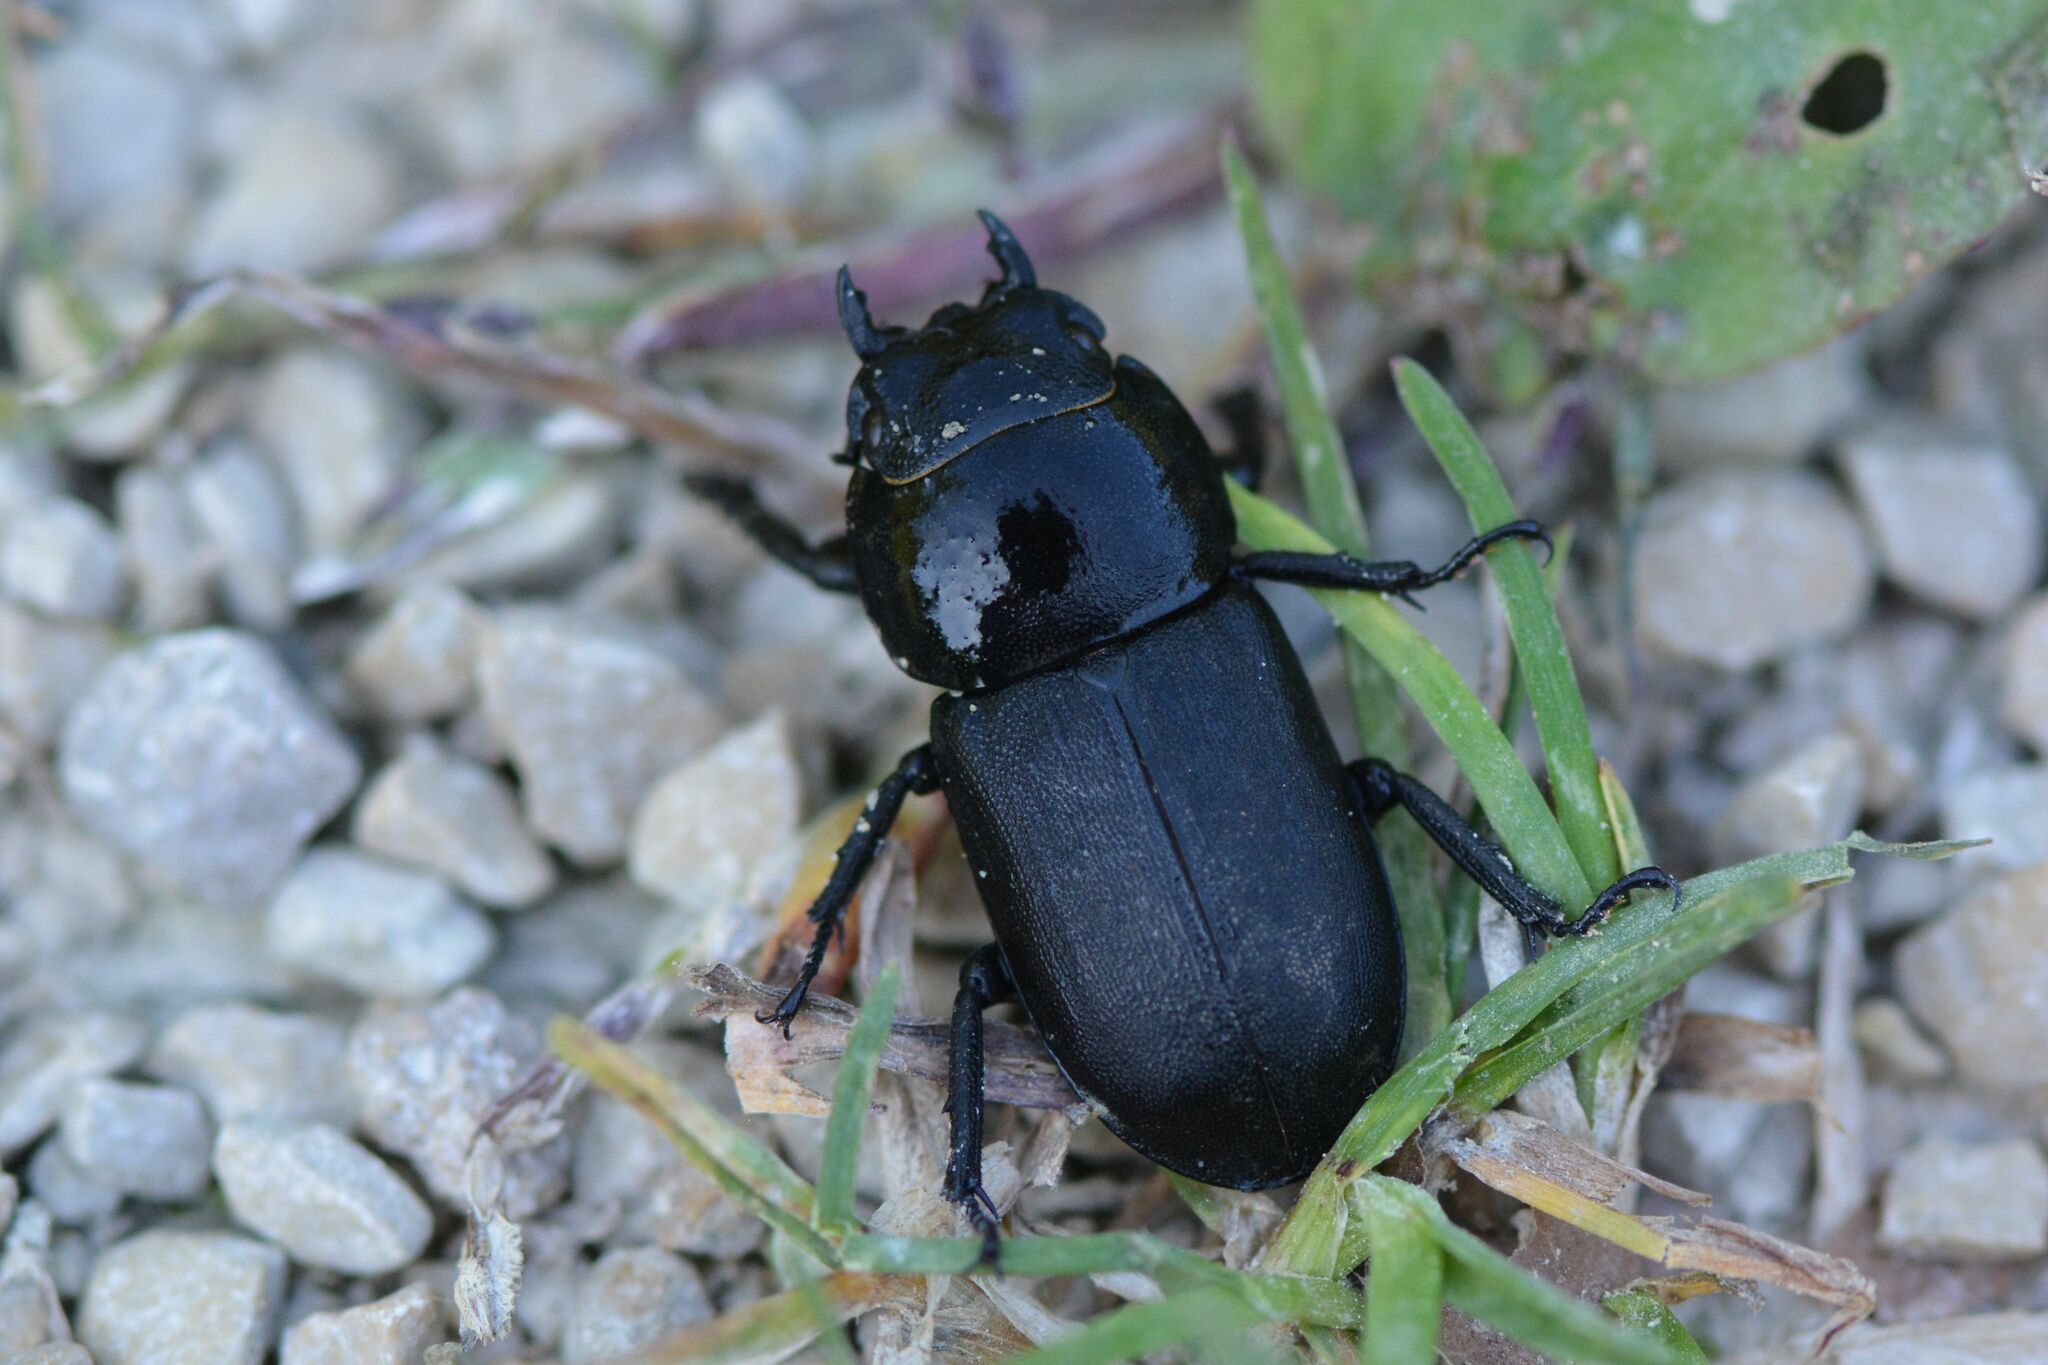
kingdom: Animalia
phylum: Arthropoda
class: Insecta
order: Coleoptera
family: Lucanidae
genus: Dorcus
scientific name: Dorcus parallelipipedus
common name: Lesser stag beetle
